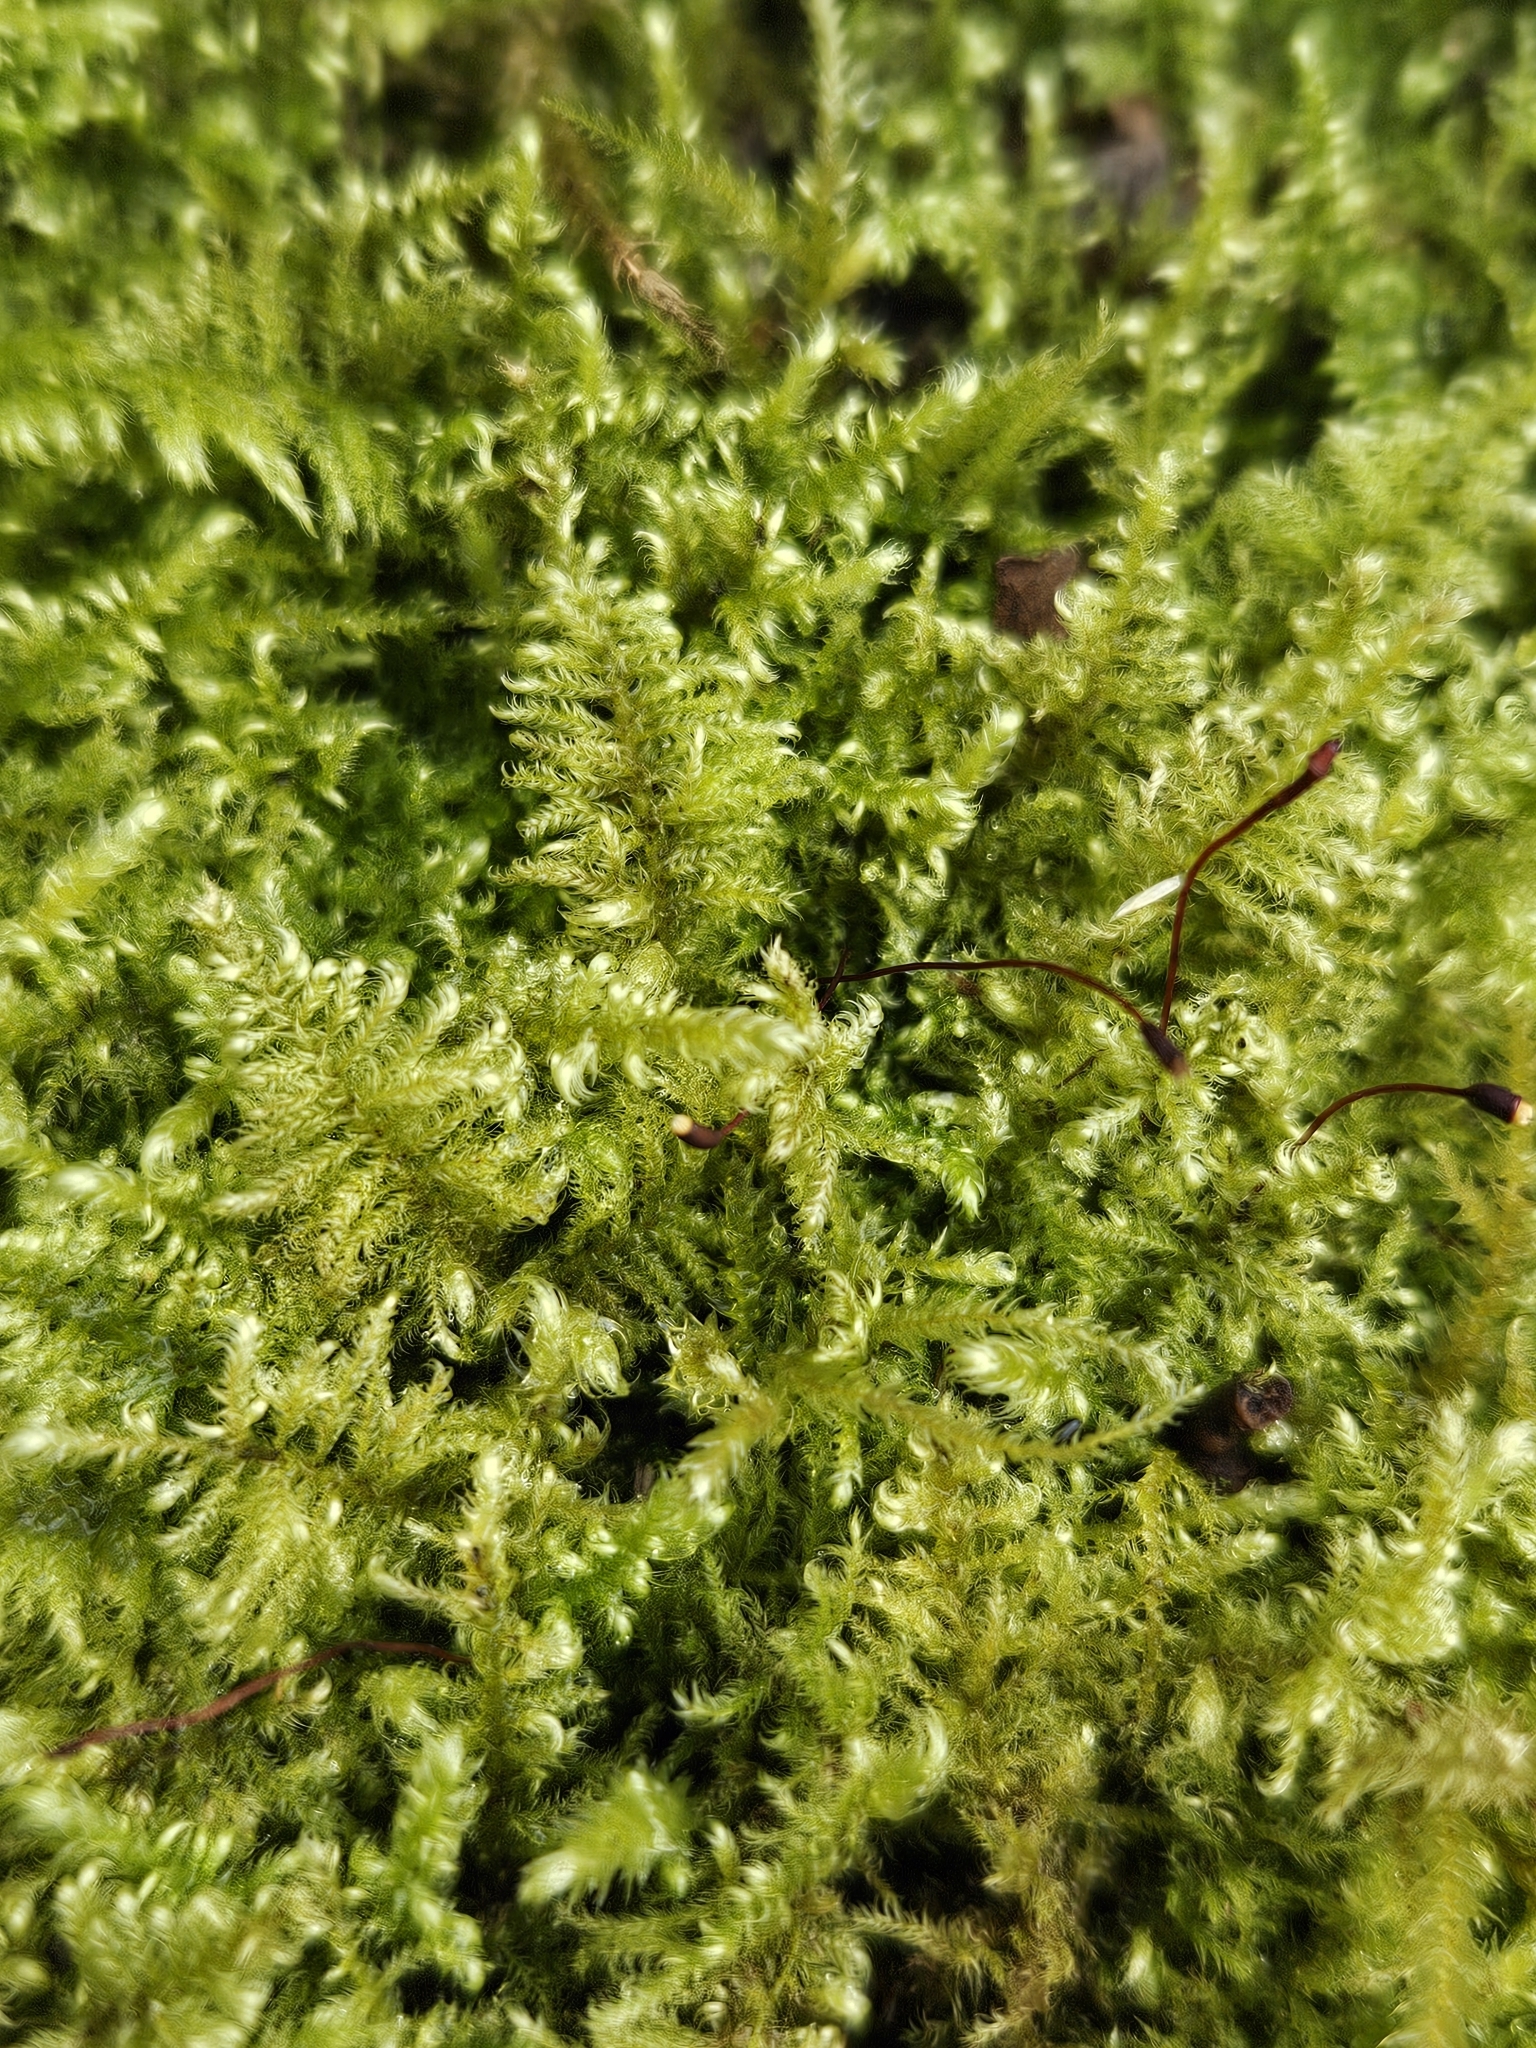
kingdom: Plantae
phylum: Bryophyta
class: Bryopsida
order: Hypnales
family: Myuriaceae
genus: Ctenidium
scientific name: Ctenidium molluscum
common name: Chalk comb-moss
